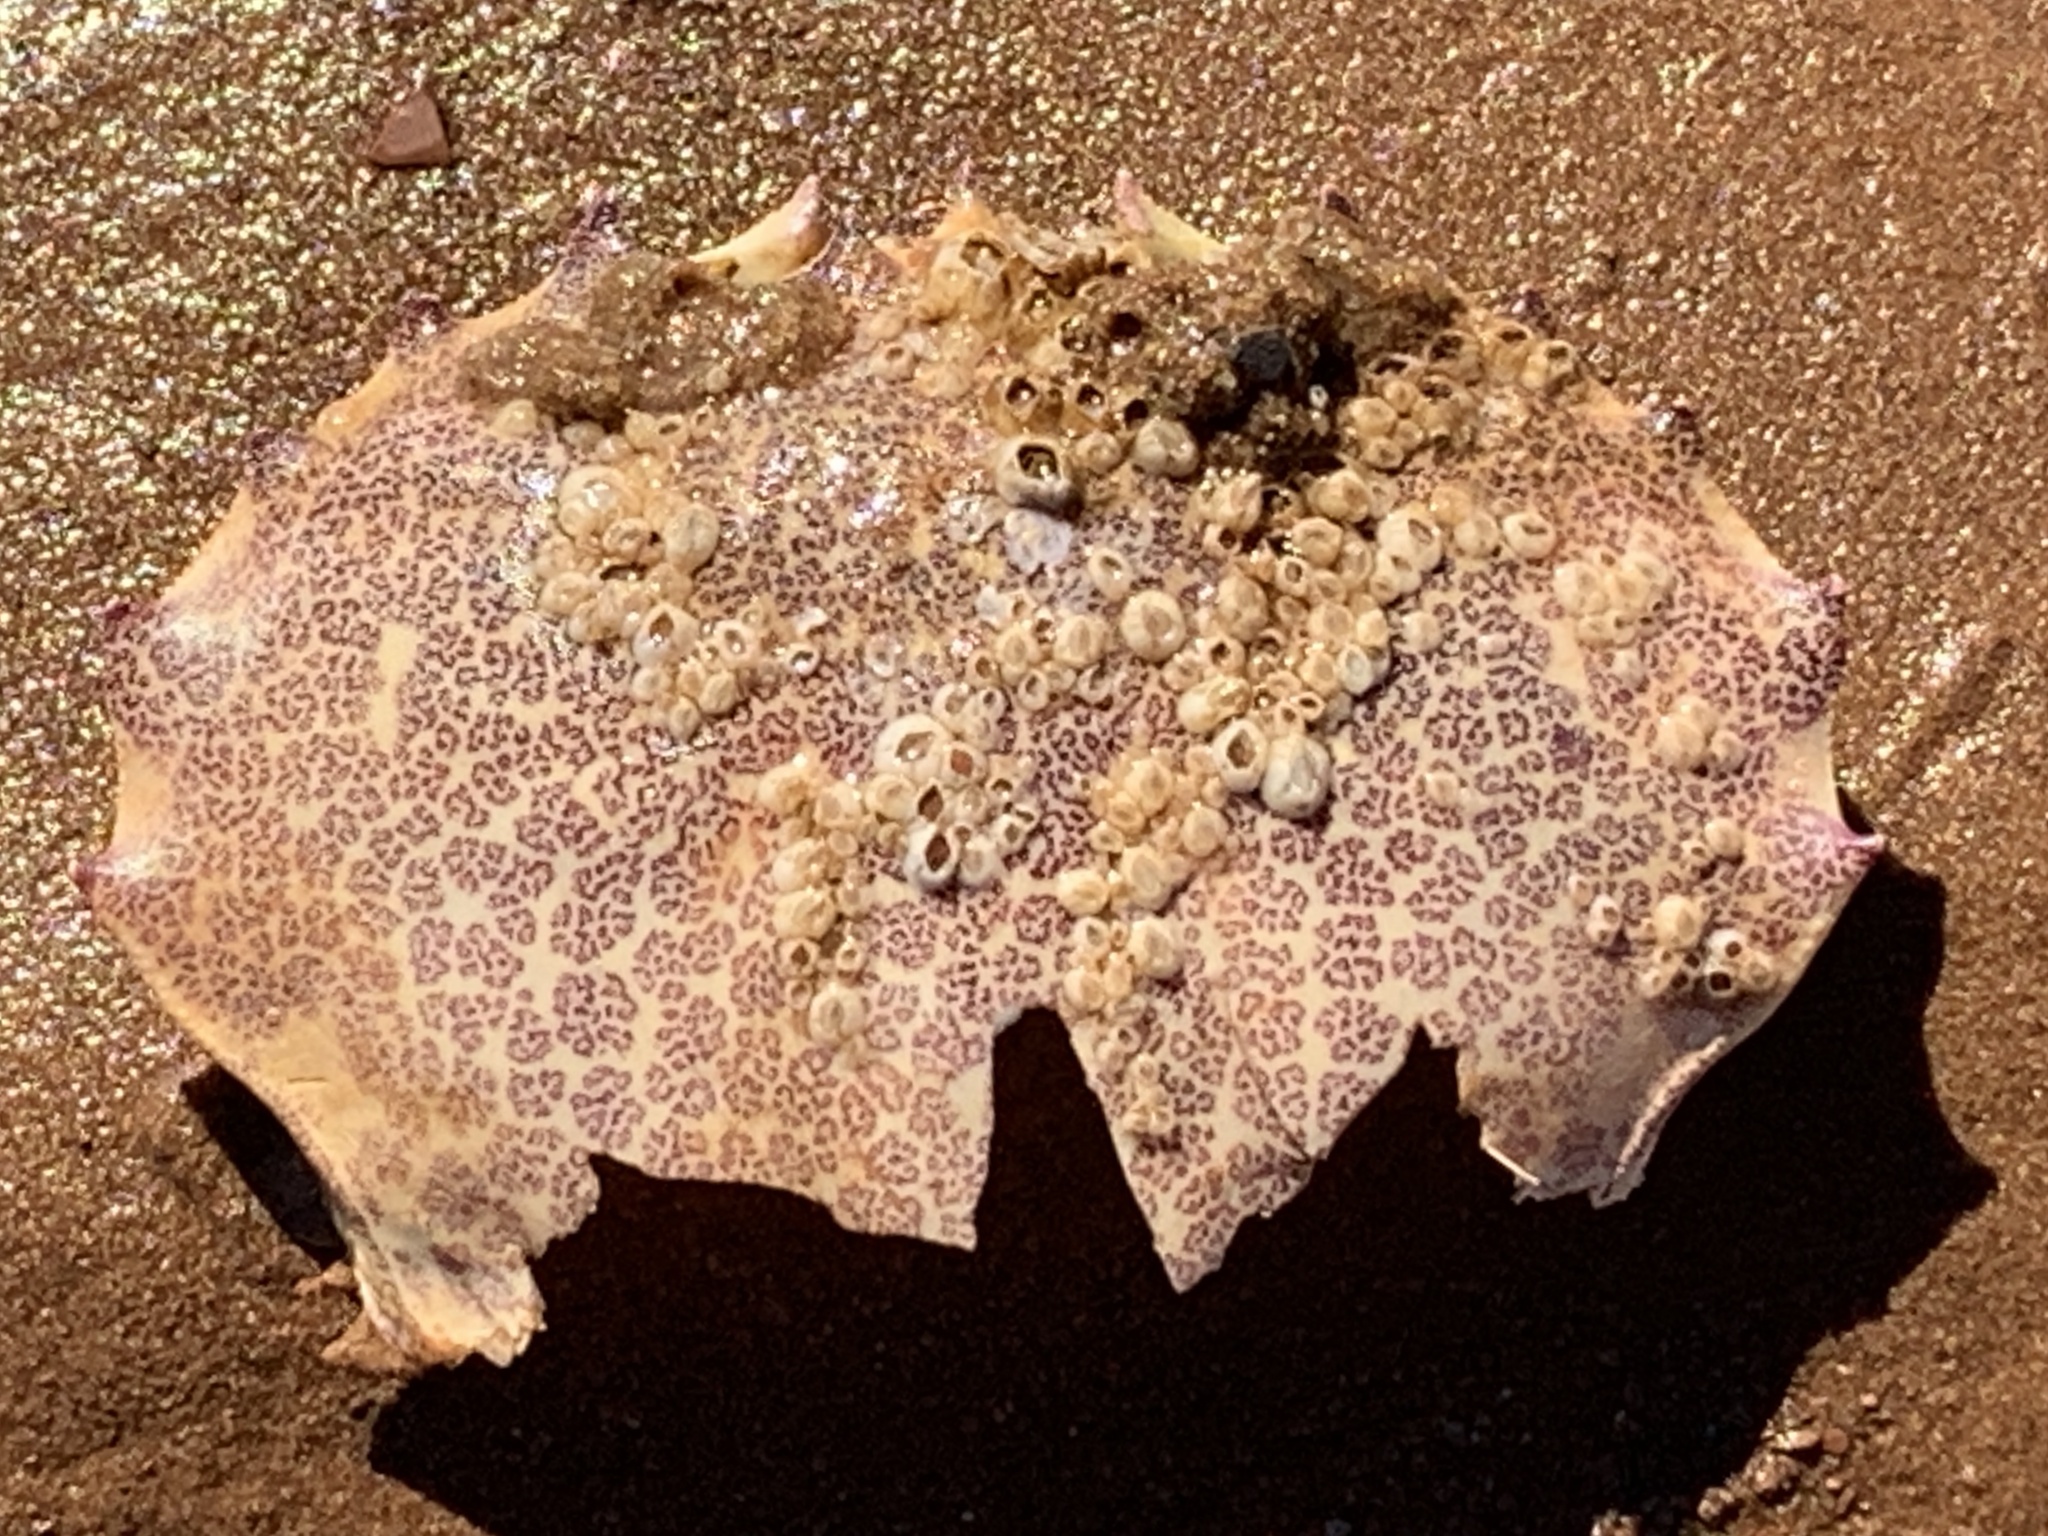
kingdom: Animalia
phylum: Arthropoda
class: Malacostraca
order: Decapoda
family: Ovalipidae
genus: Ovalipes
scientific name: Ovalipes ocellatus
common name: Lady crab
